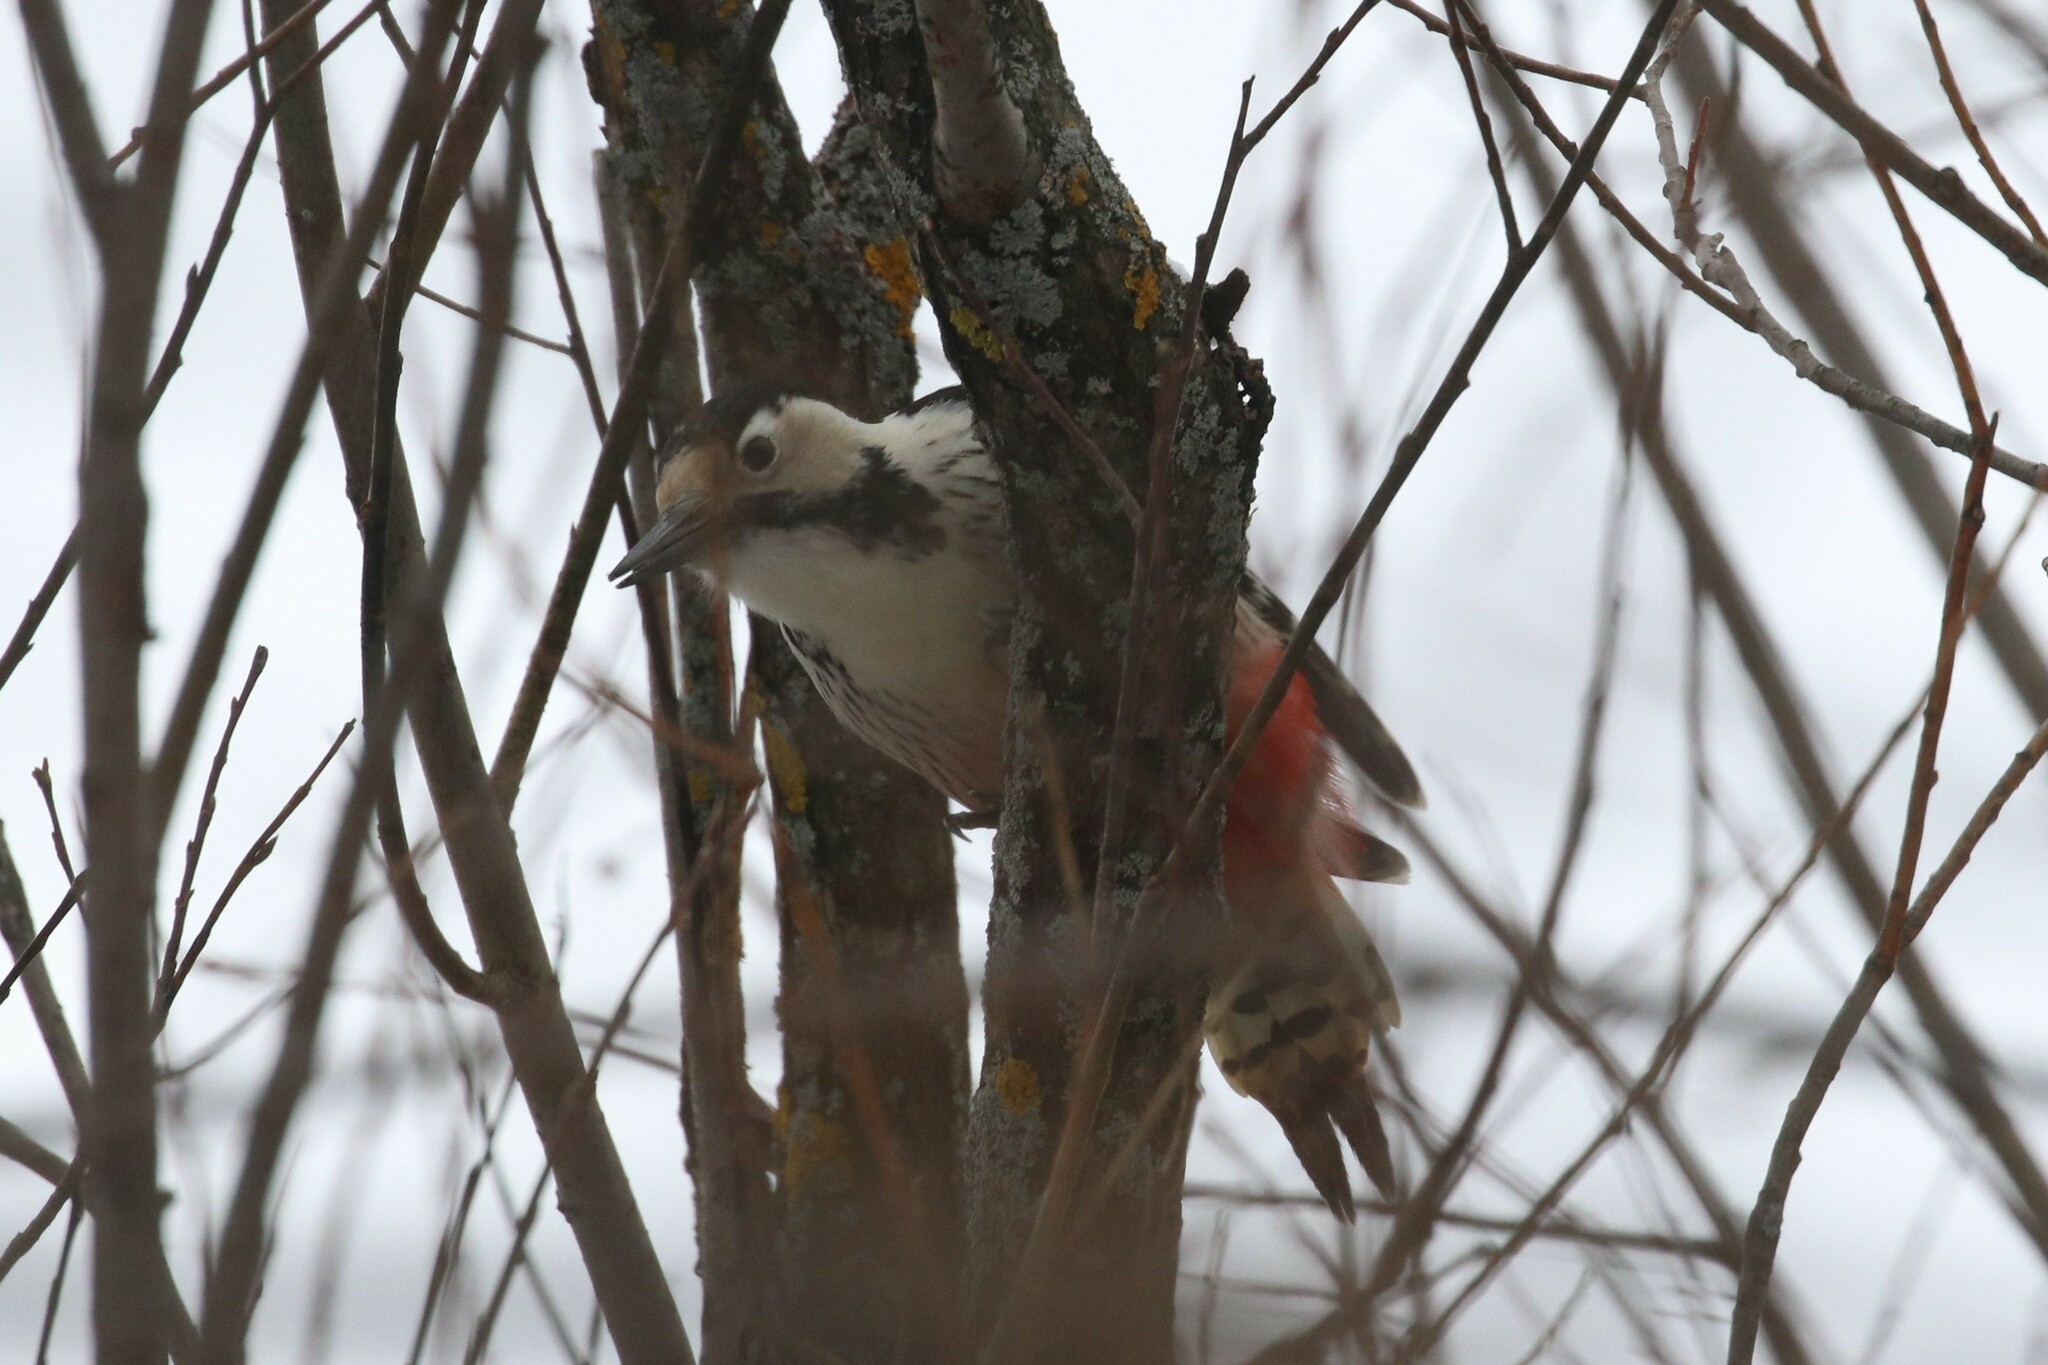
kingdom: Animalia
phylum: Chordata
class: Aves
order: Piciformes
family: Picidae
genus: Dendrocopos
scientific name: Dendrocopos leucotos
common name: White-backed woodpecker
